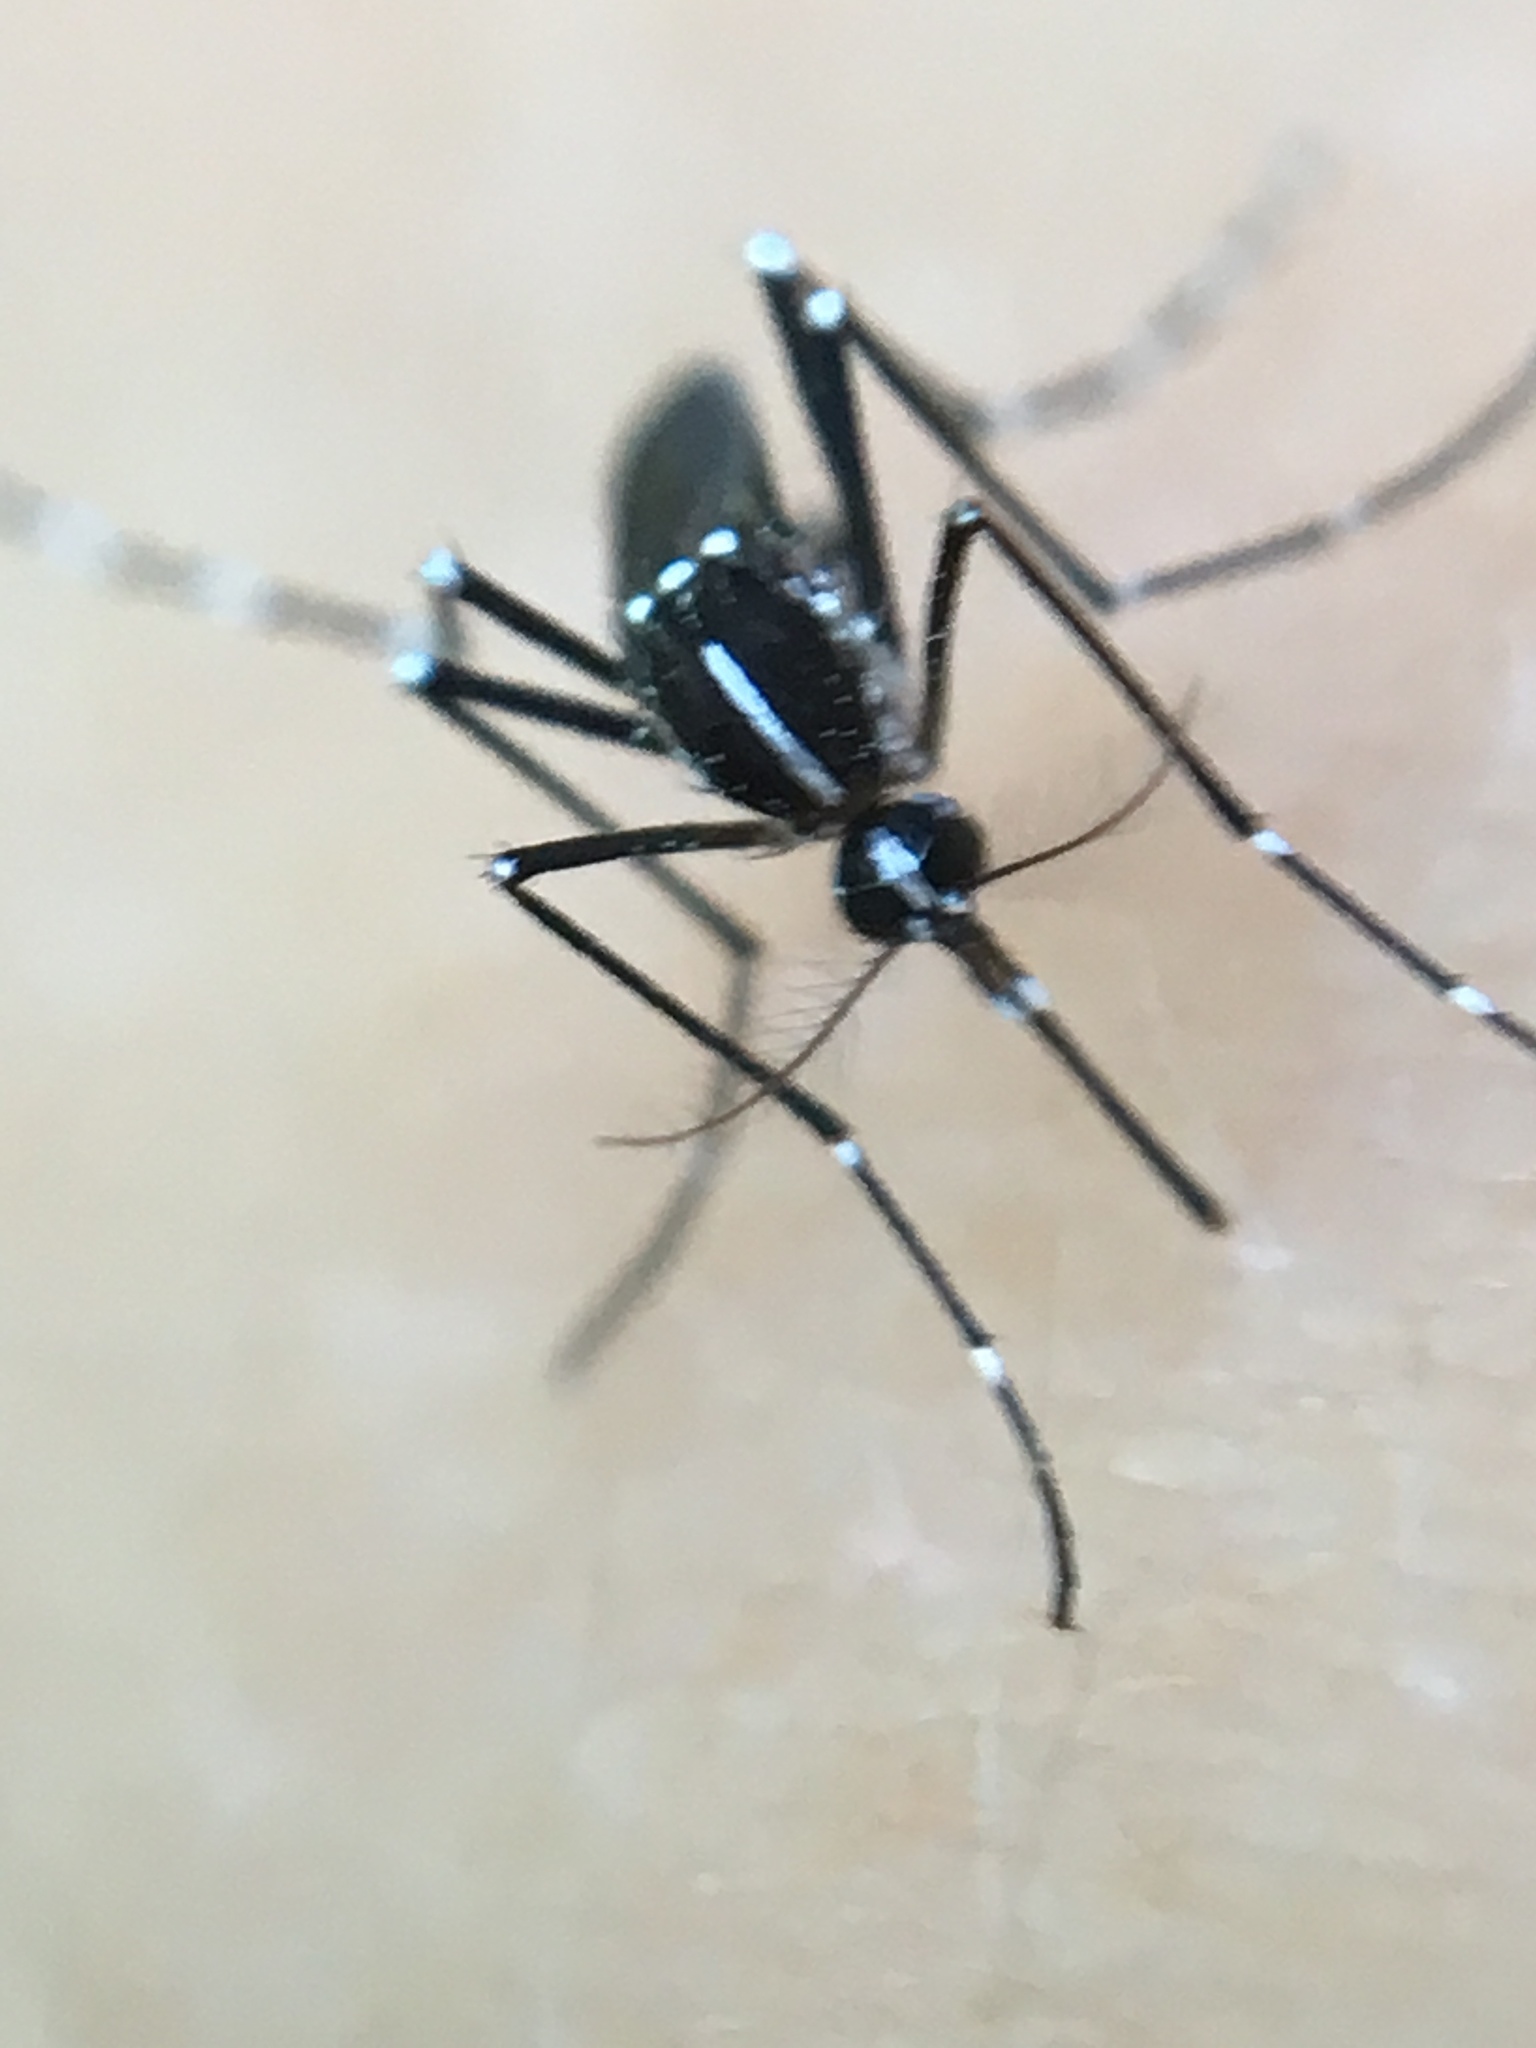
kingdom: Animalia
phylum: Arthropoda
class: Insecta
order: Diptera
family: Culicidae
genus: Aedes
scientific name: Aedes albopictus
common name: Tiger mosquito
